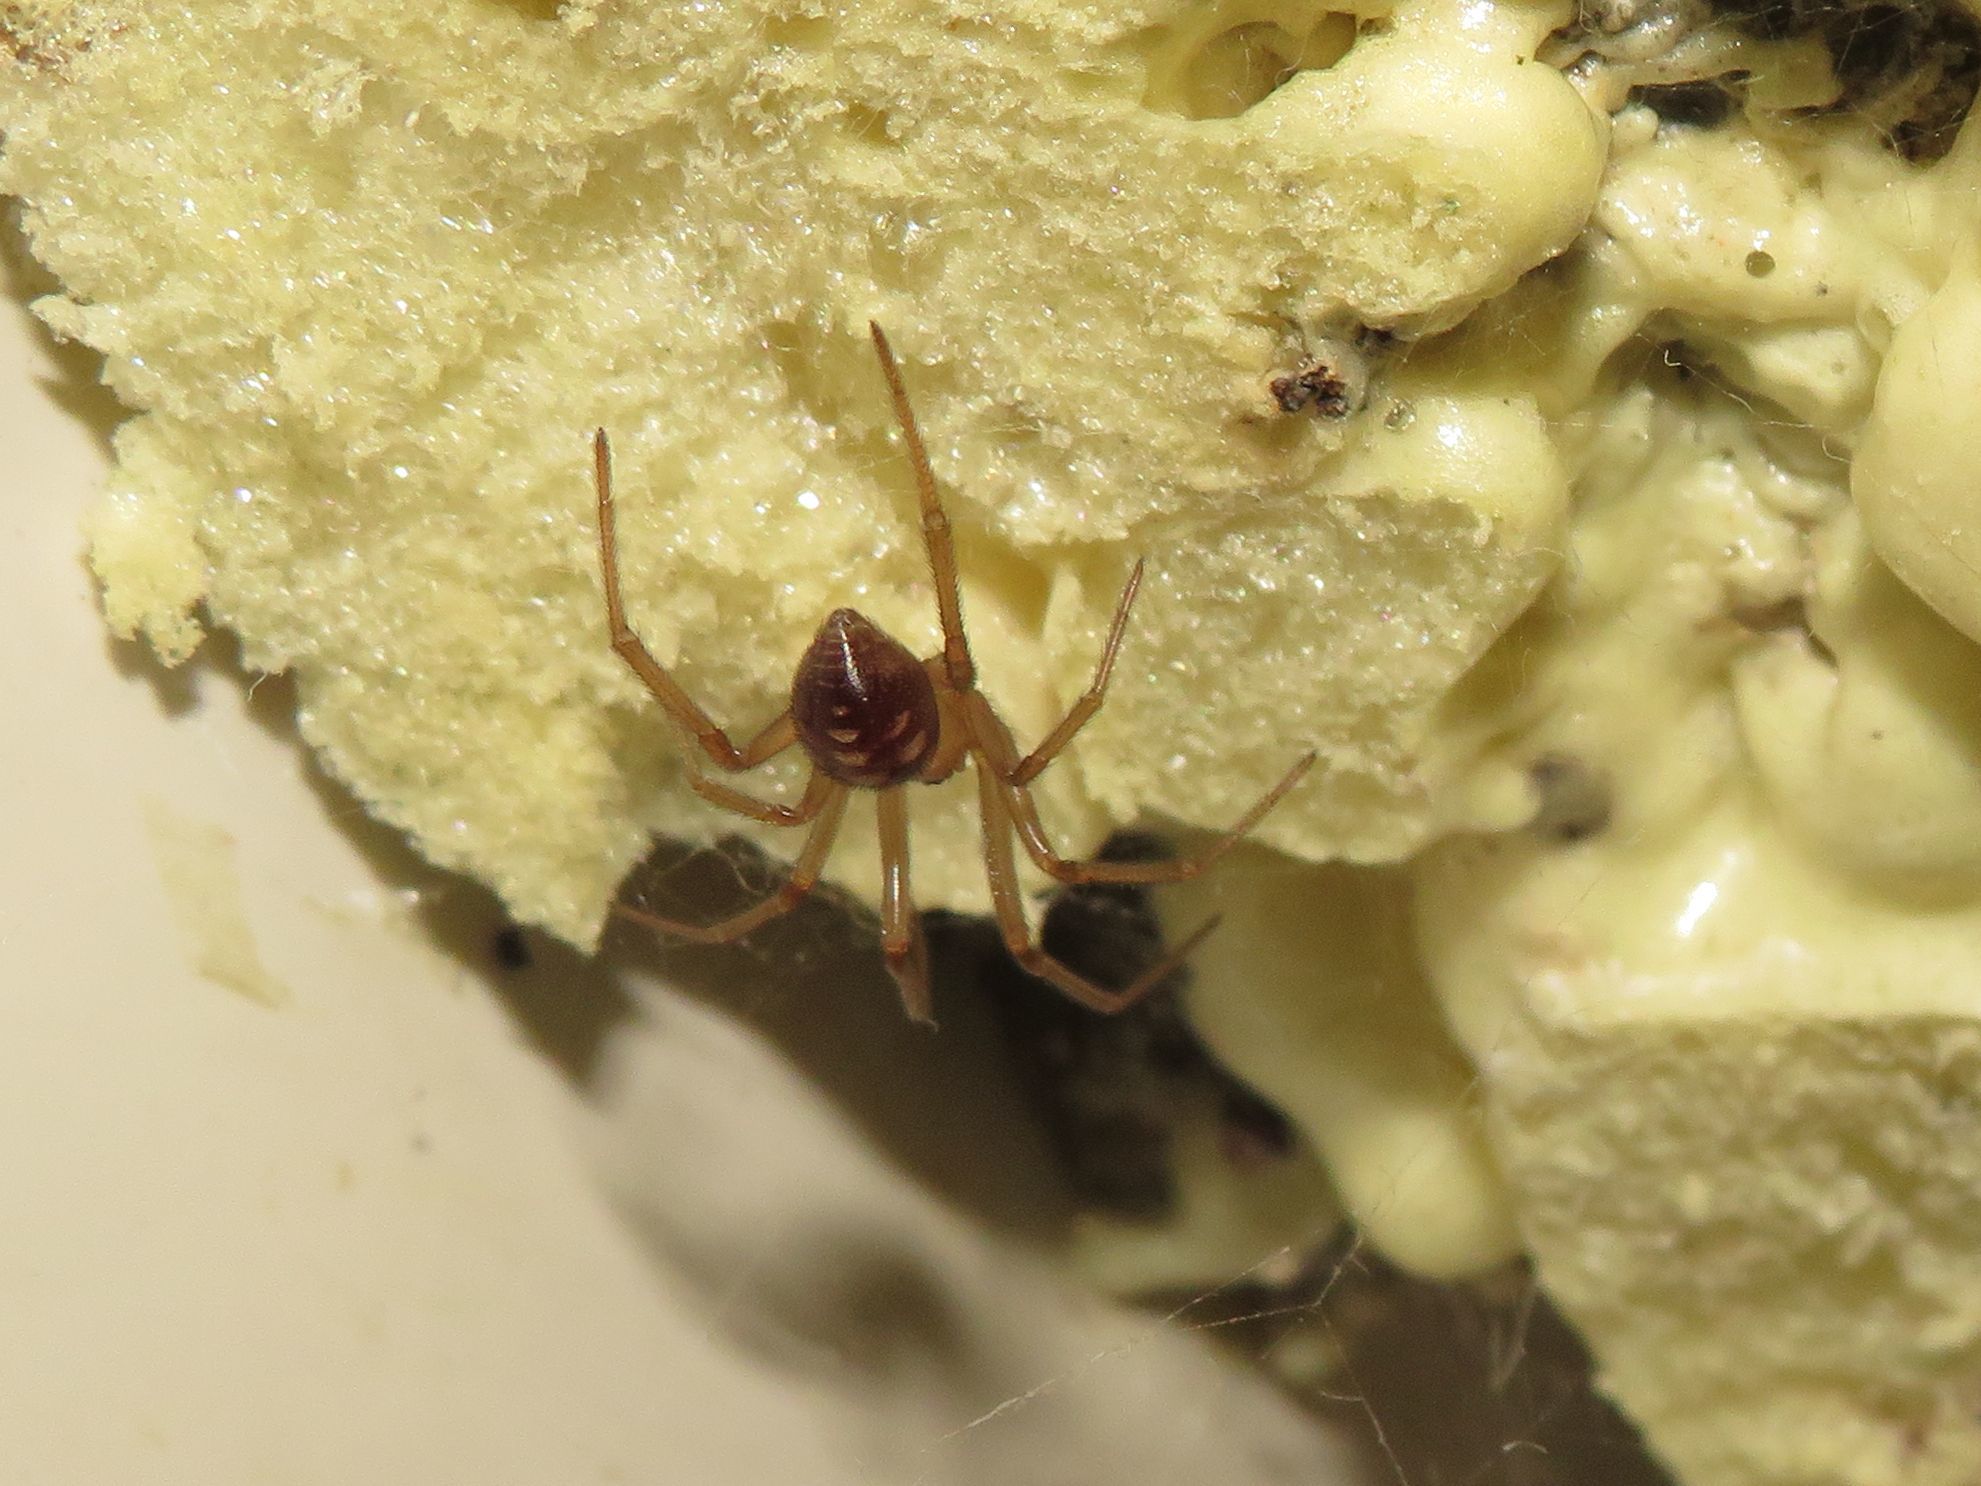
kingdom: Animalia
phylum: Arthropoda
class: Arachnida
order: Araneae
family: Theridiidae
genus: Steatoda
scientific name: Steatoda grossa
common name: False black widow
